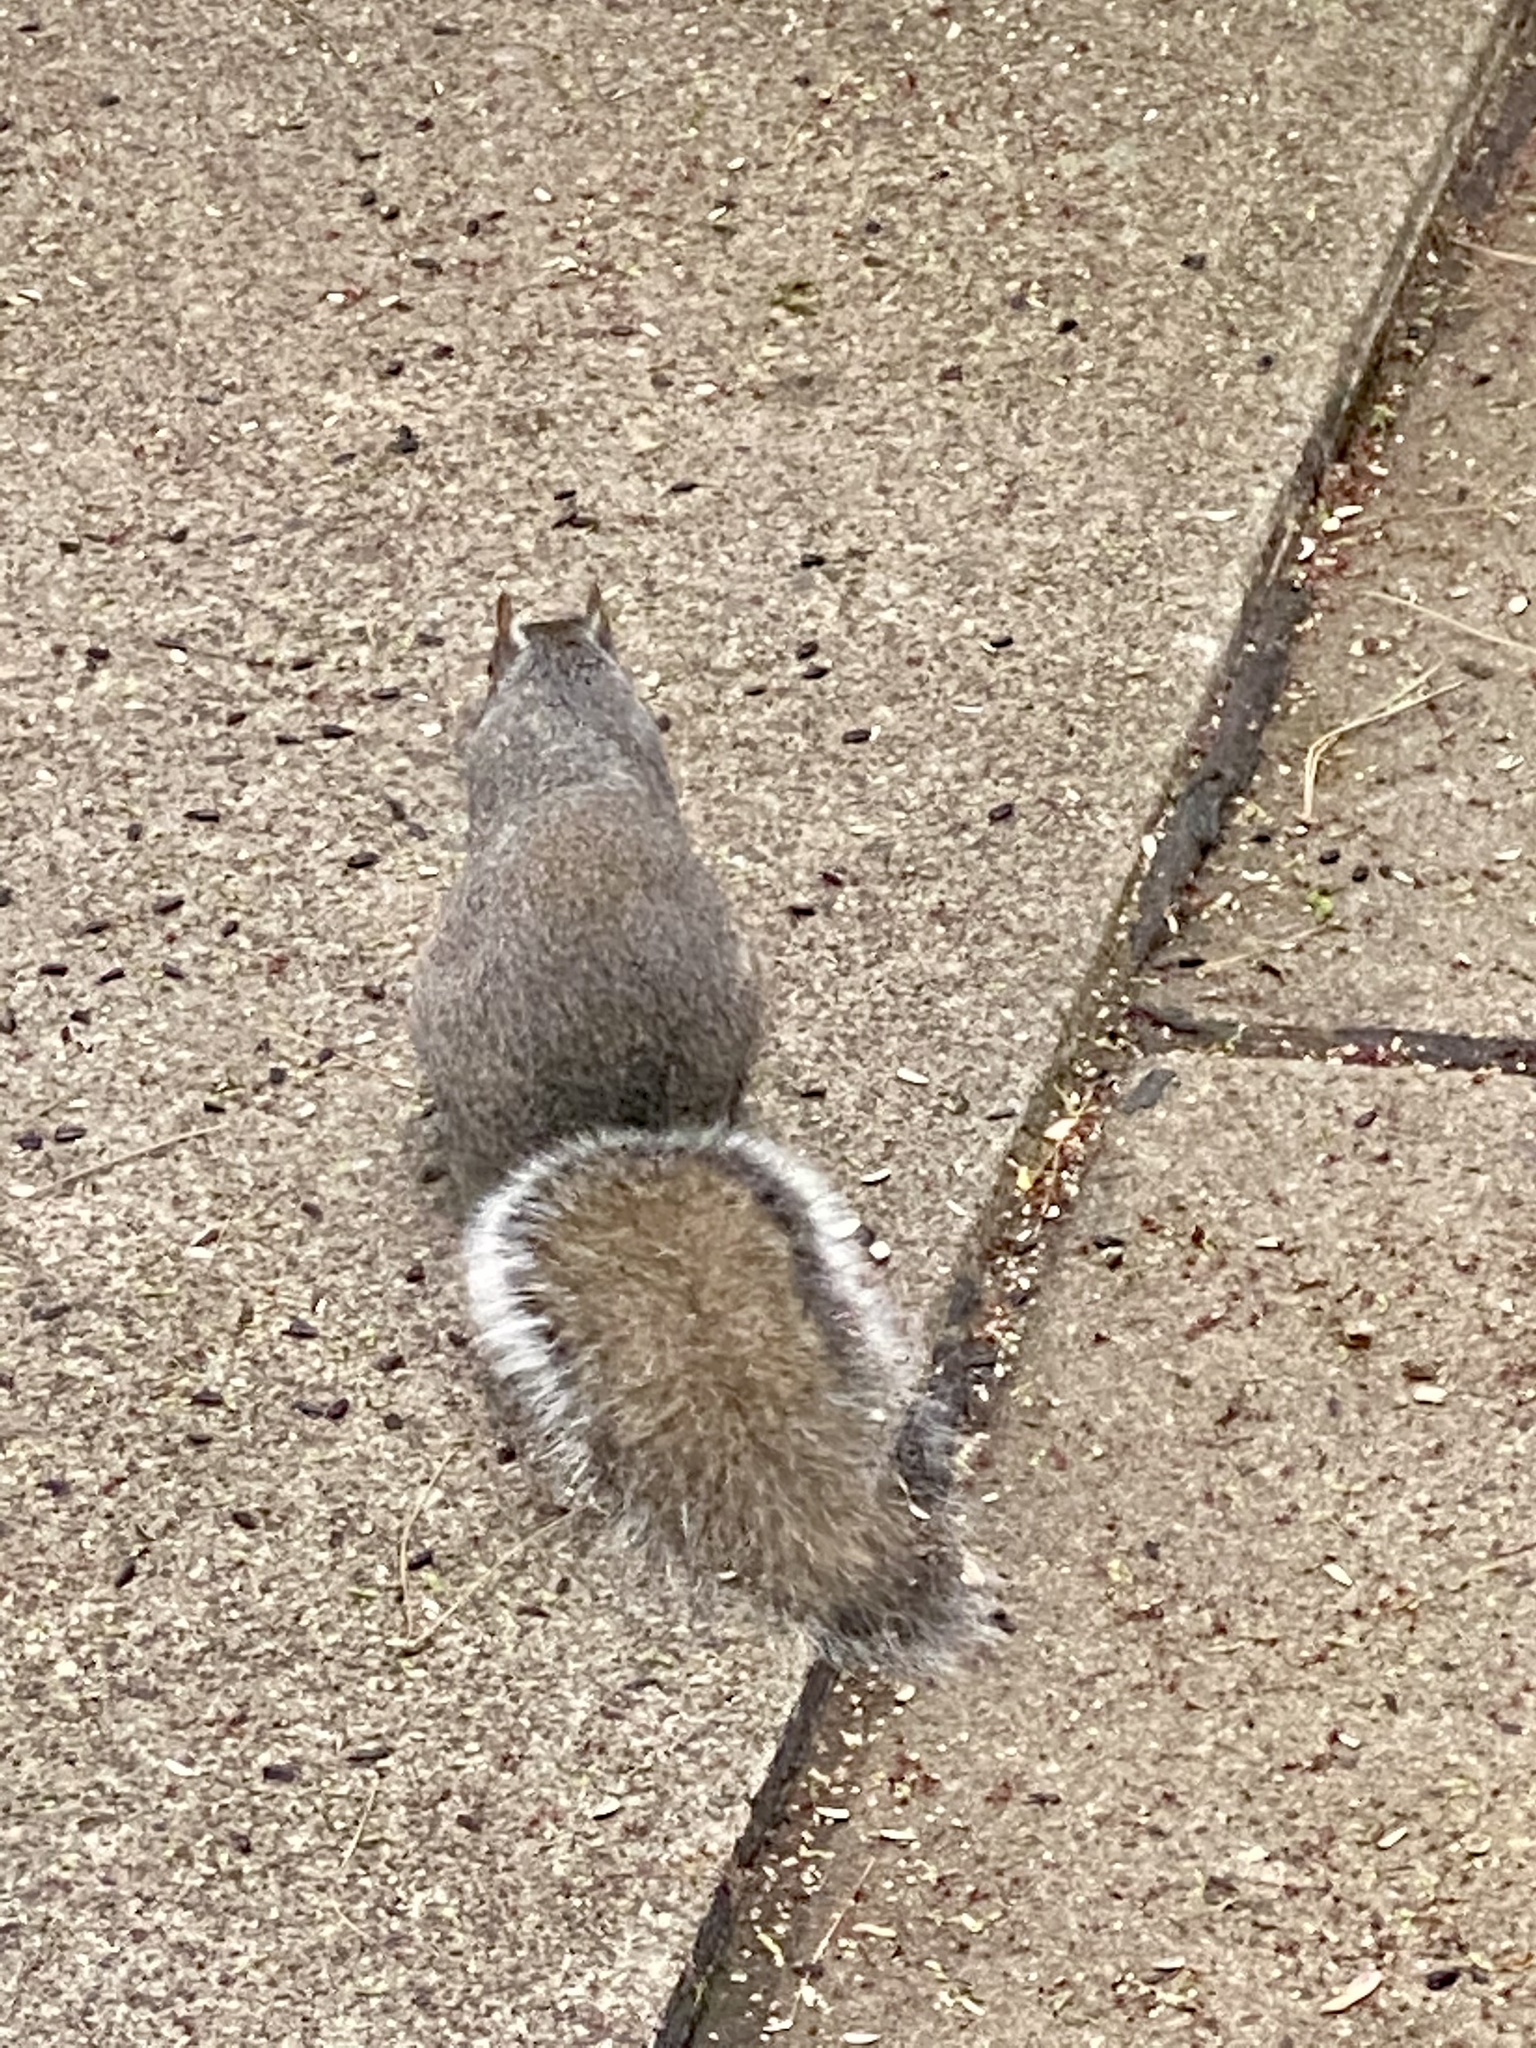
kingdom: Animalia
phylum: Chordata
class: Mammalia
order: Rodentia
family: Sciuridae
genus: Sciurus
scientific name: Sciurus carolinensis
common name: Eastern gray squirrel
